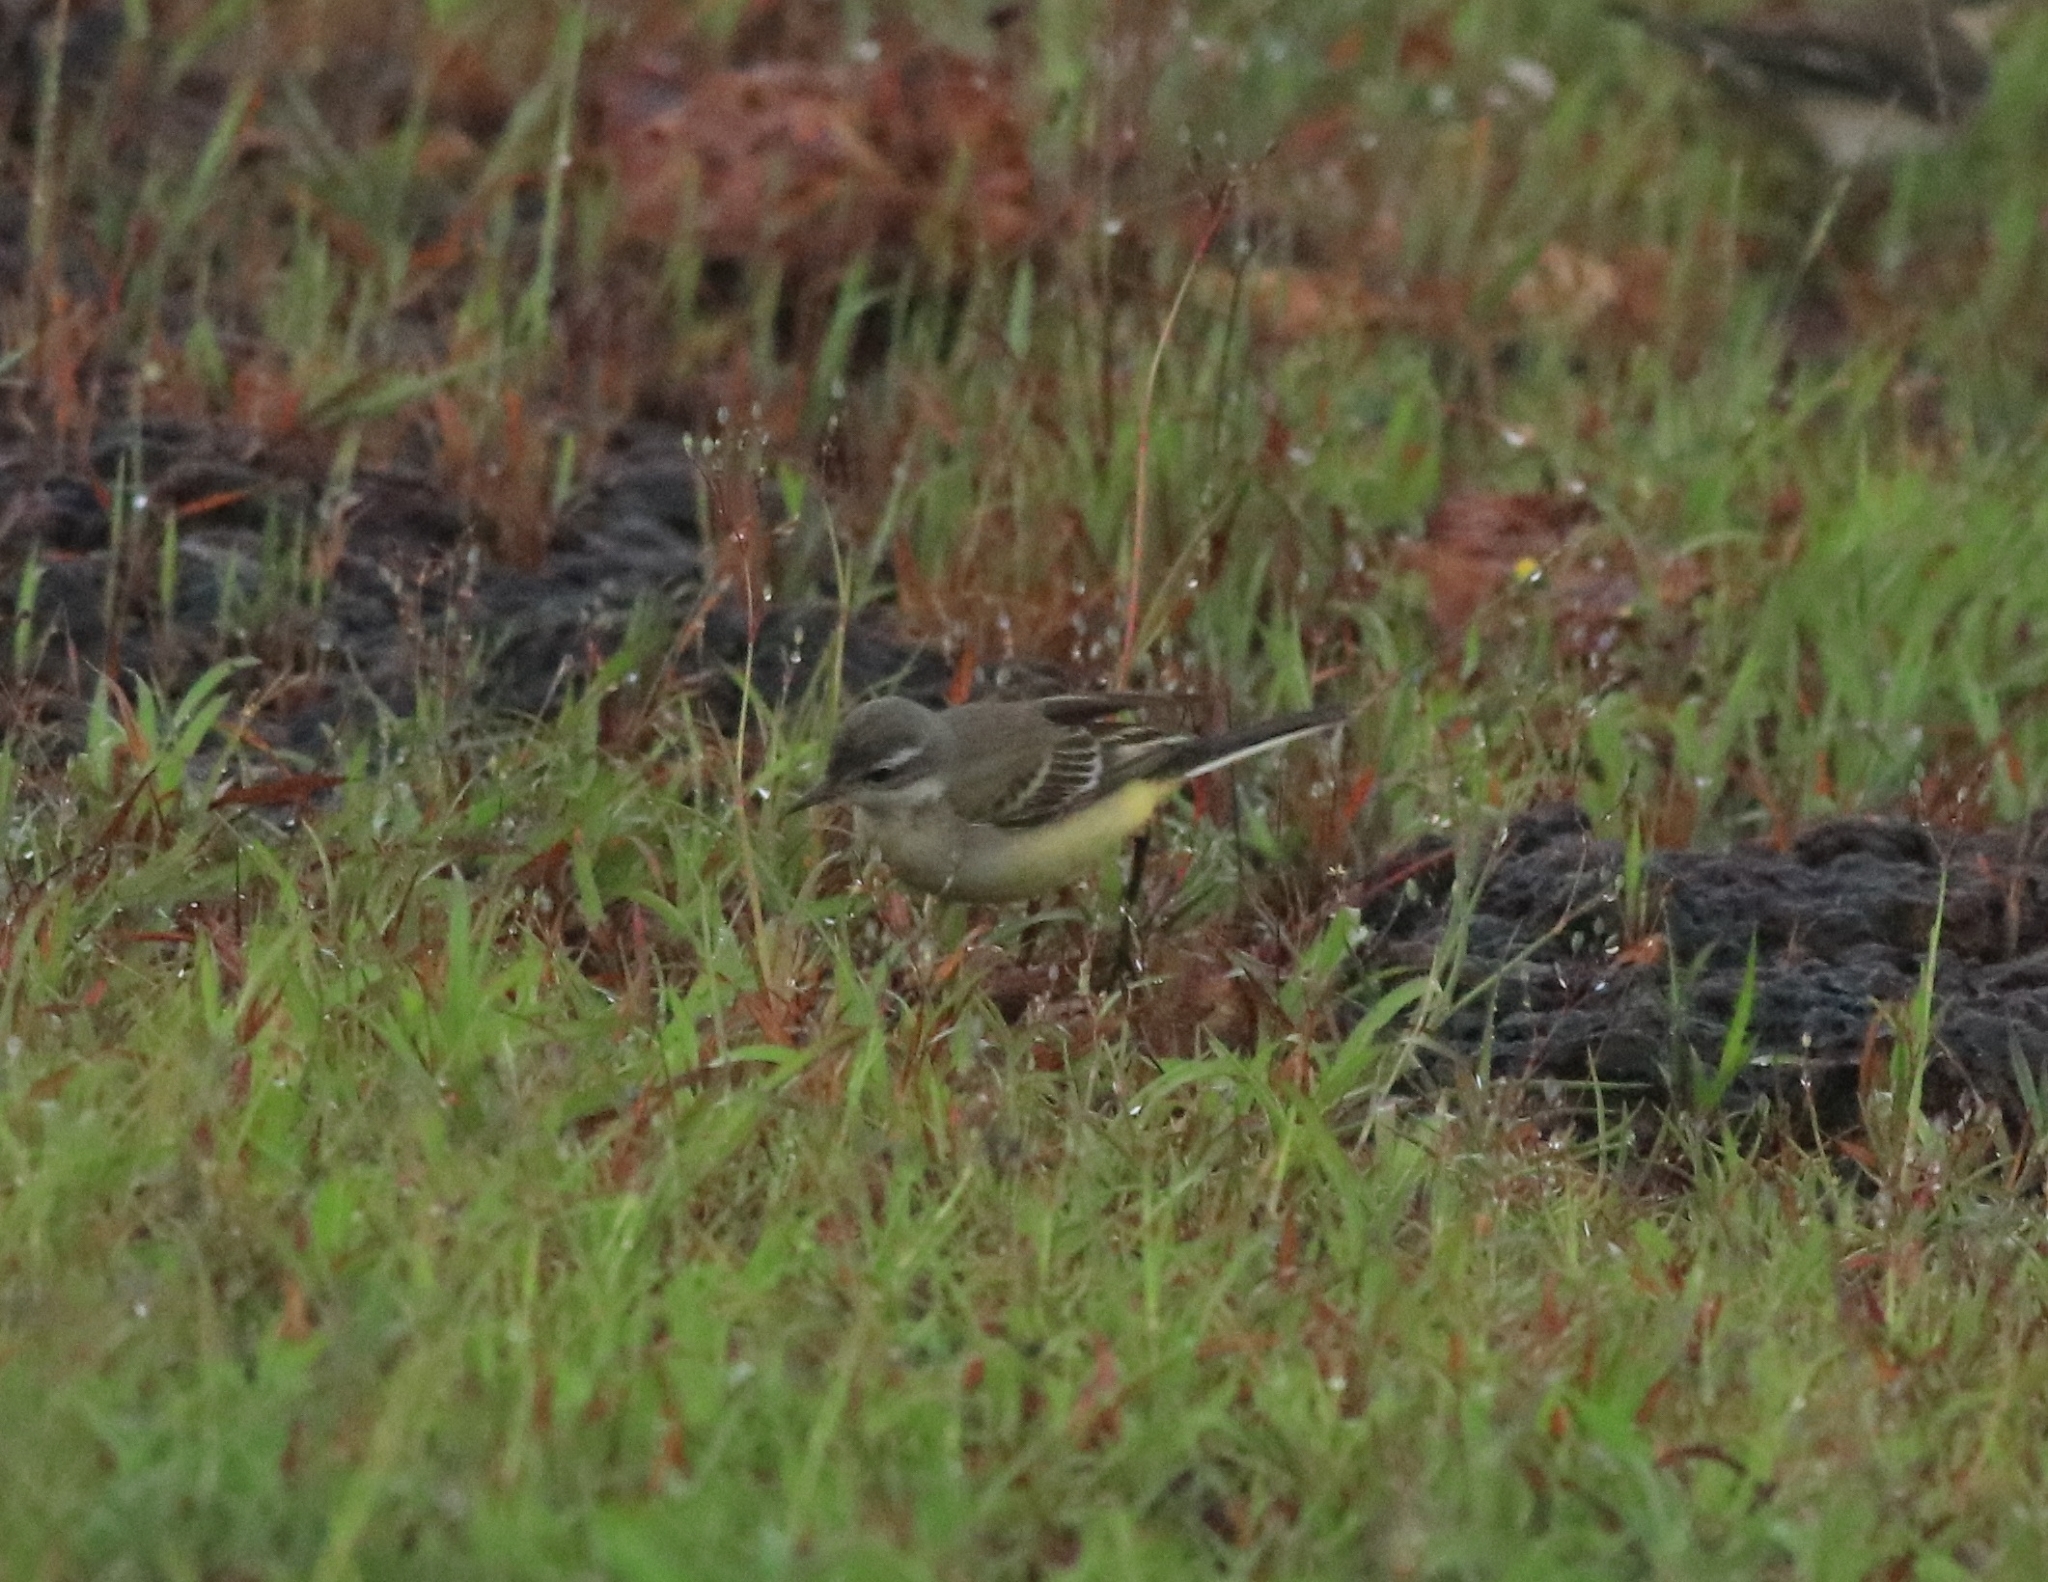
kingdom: Animalia
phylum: Chordata
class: Aves
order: Passeriformes
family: Motacillidae
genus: Motacilla
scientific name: Motacilla flava
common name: Western yellow wagtail
